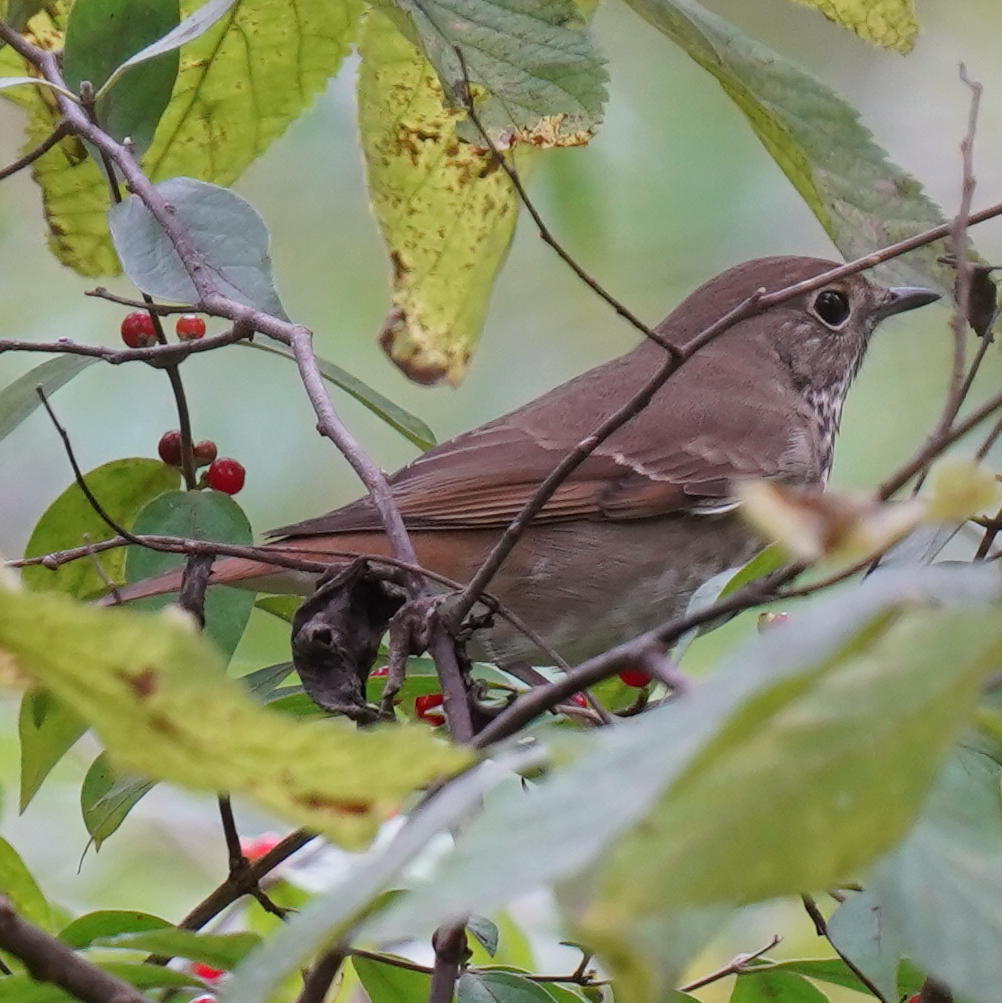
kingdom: Animalia
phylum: Chordata
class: Aves
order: Passeriformes
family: Turdidae
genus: Catharus
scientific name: Catharus guttatus
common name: Hermit thrush
